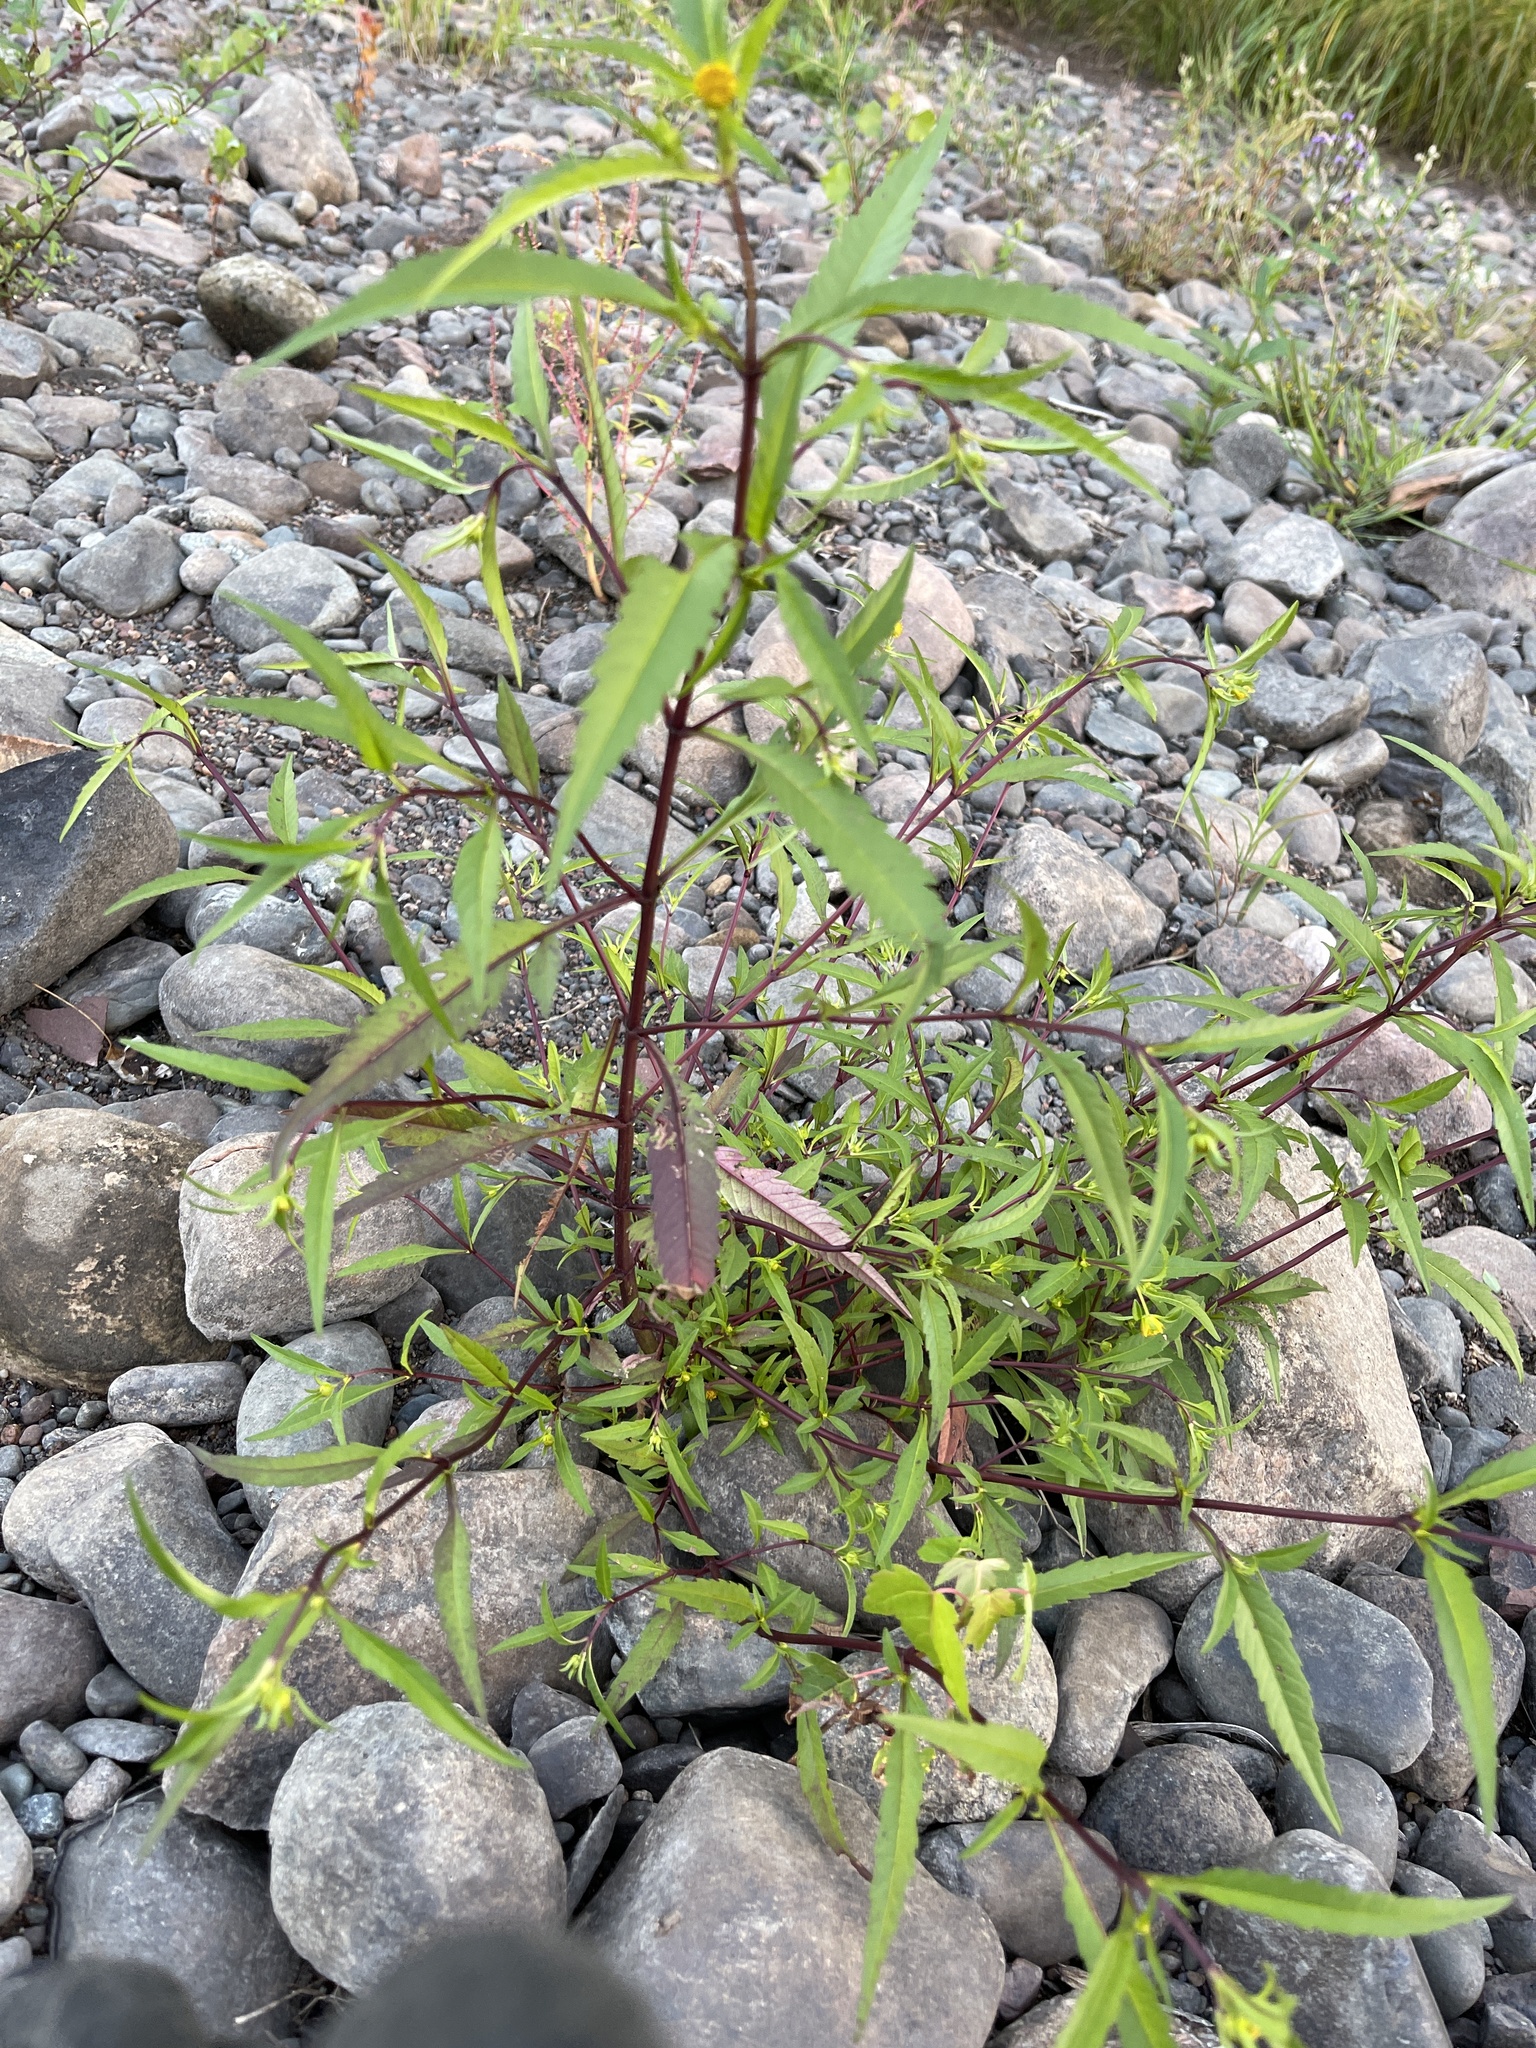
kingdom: Plantae
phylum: Tracheophyta
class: Magnoliopsida
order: Asterales
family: Asteraceae
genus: Bidens
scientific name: Bidens connata
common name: London bur-marigold
